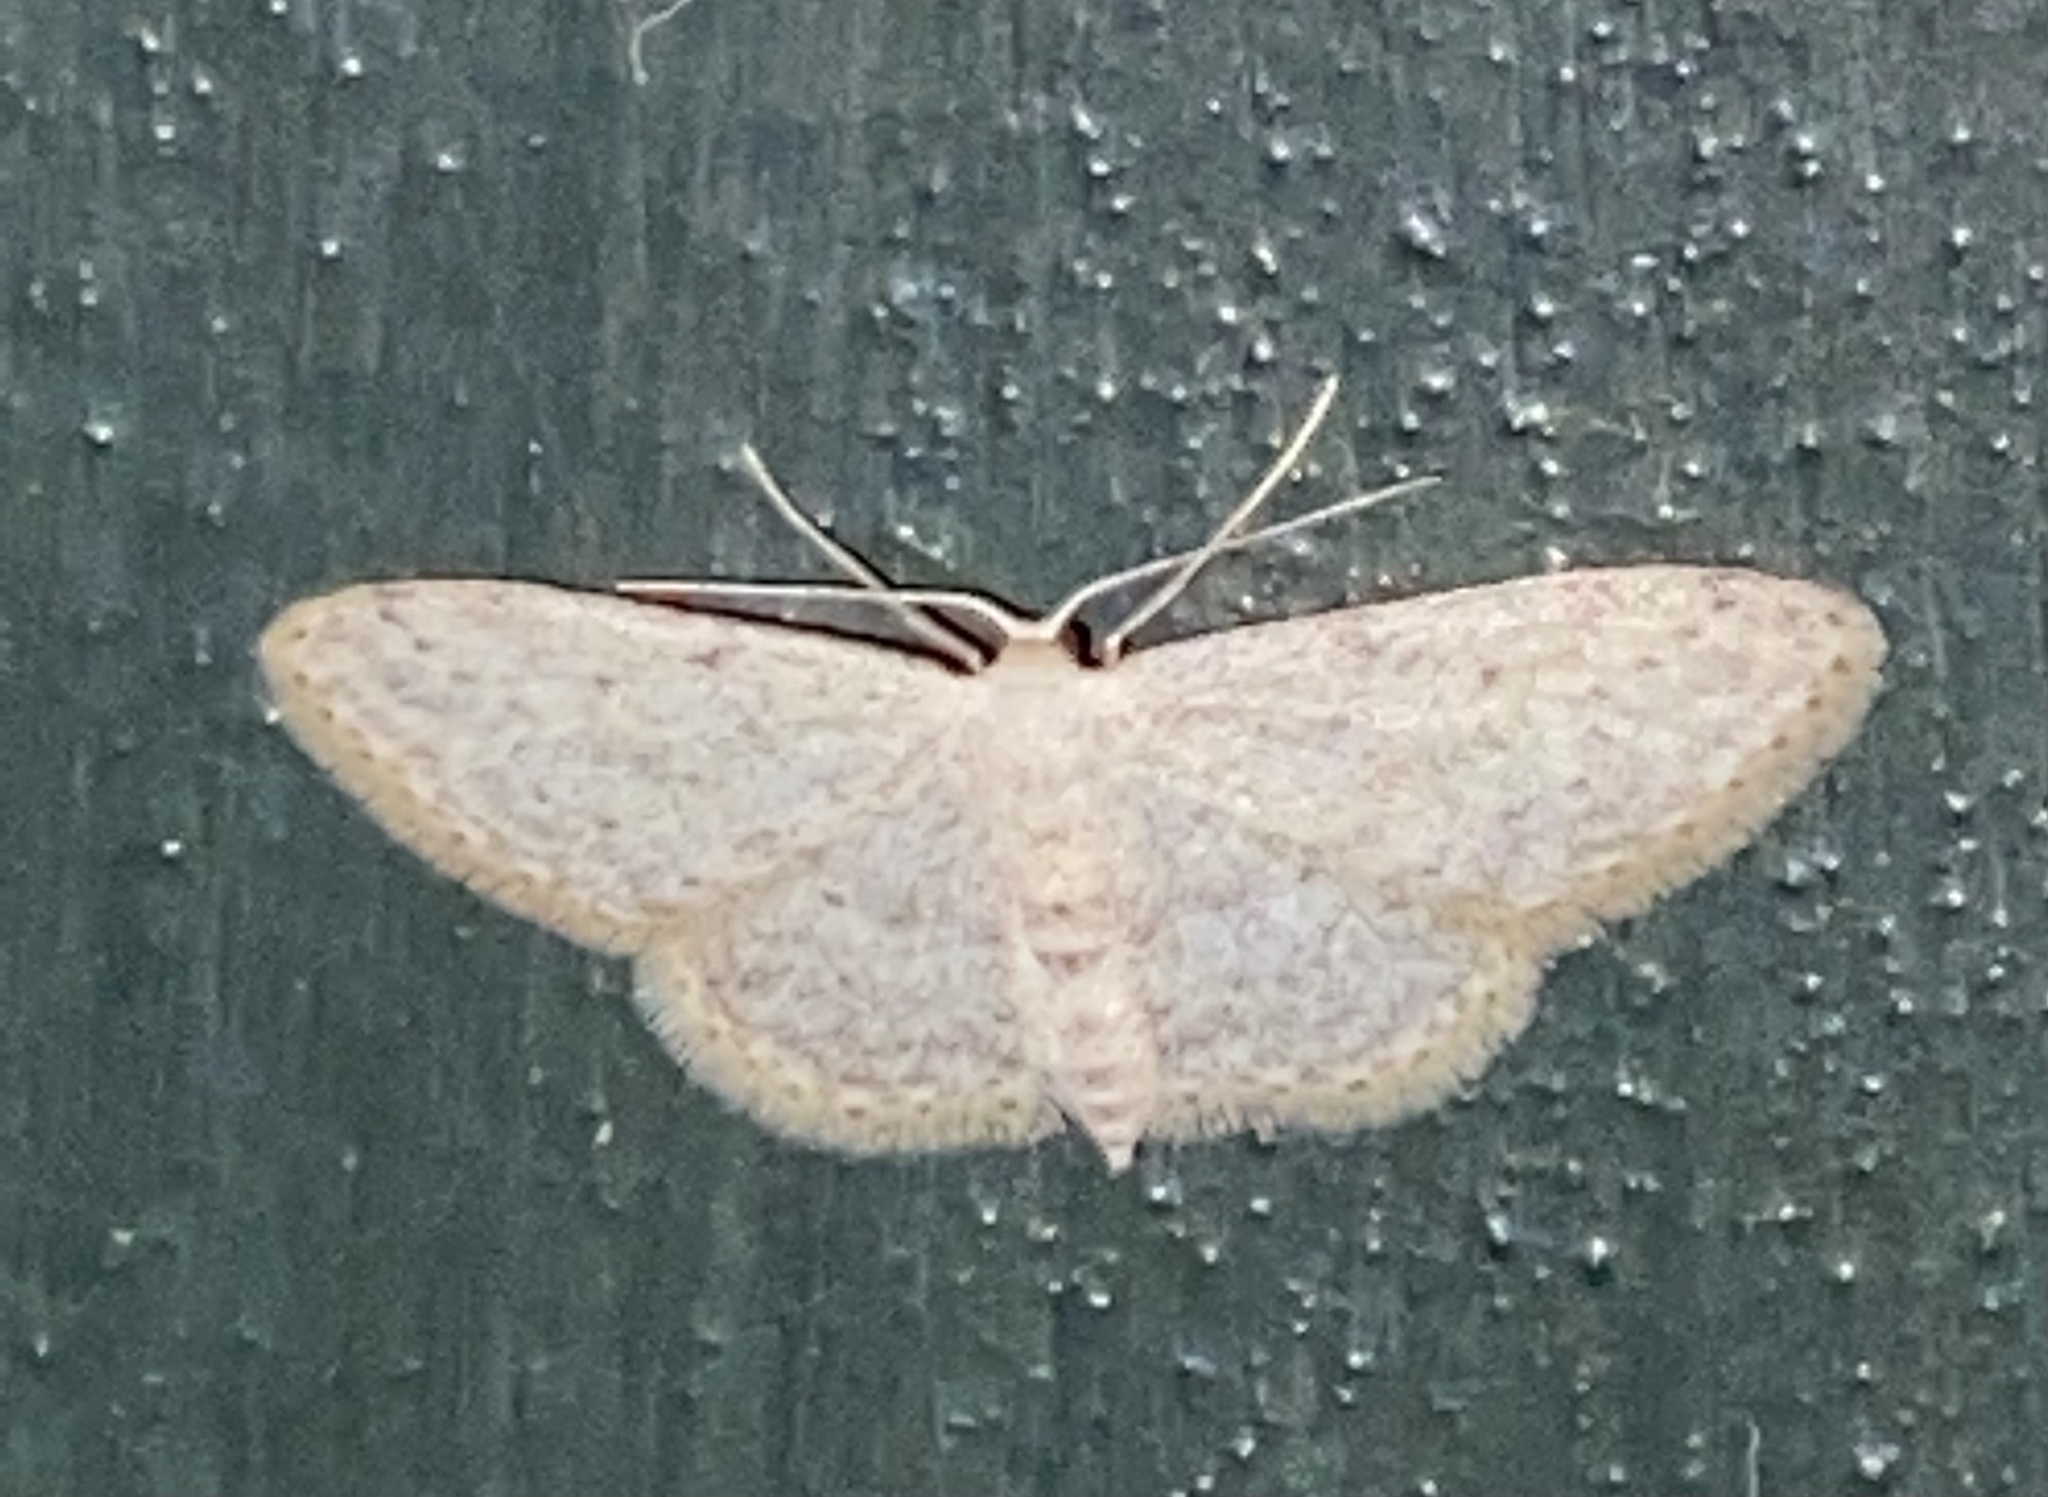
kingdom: Animalia
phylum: Arthropoda
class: Insecta
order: Lepidoptera
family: Geometridae
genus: Idaea
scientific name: Idaea seriata
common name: Small dusty wave
